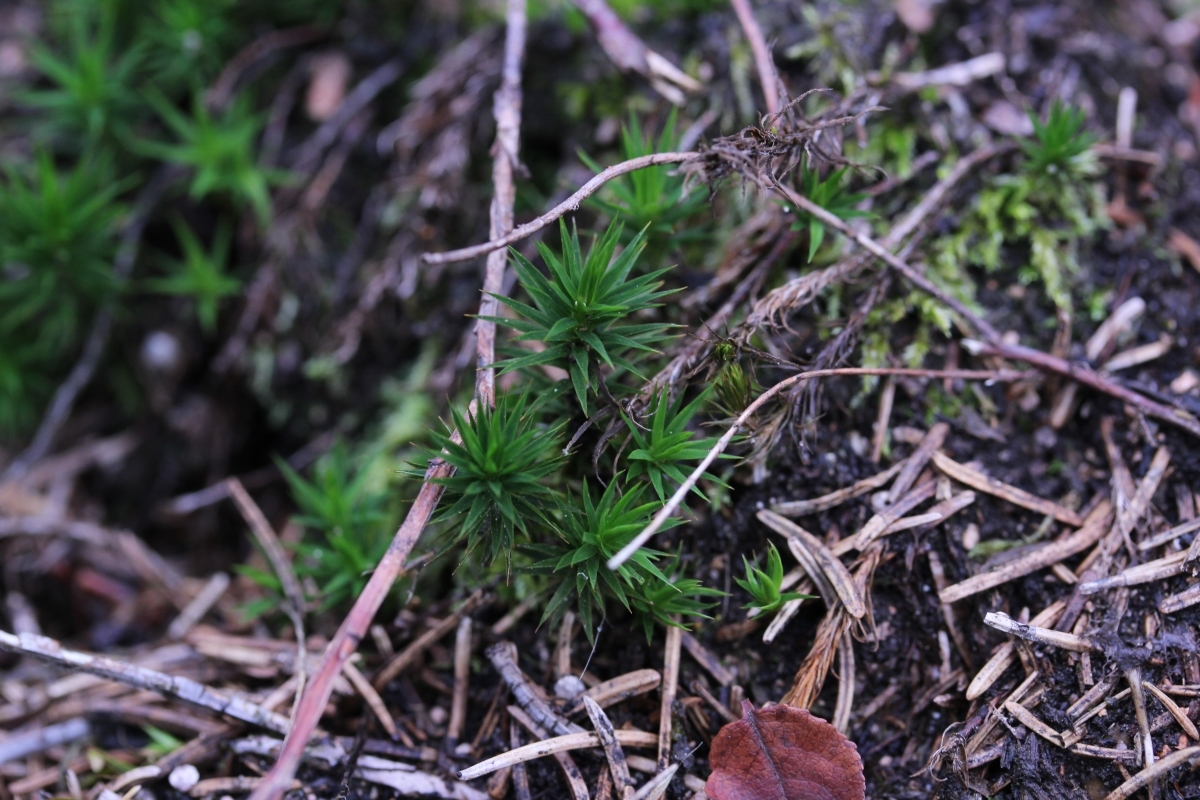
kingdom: Plantae
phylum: Bryophyta
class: Polytrichopsida
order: Polytrichales
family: Polytrichaceae
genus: Polytrichum
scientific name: Polytrichum formosum
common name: Bank haircap moss
